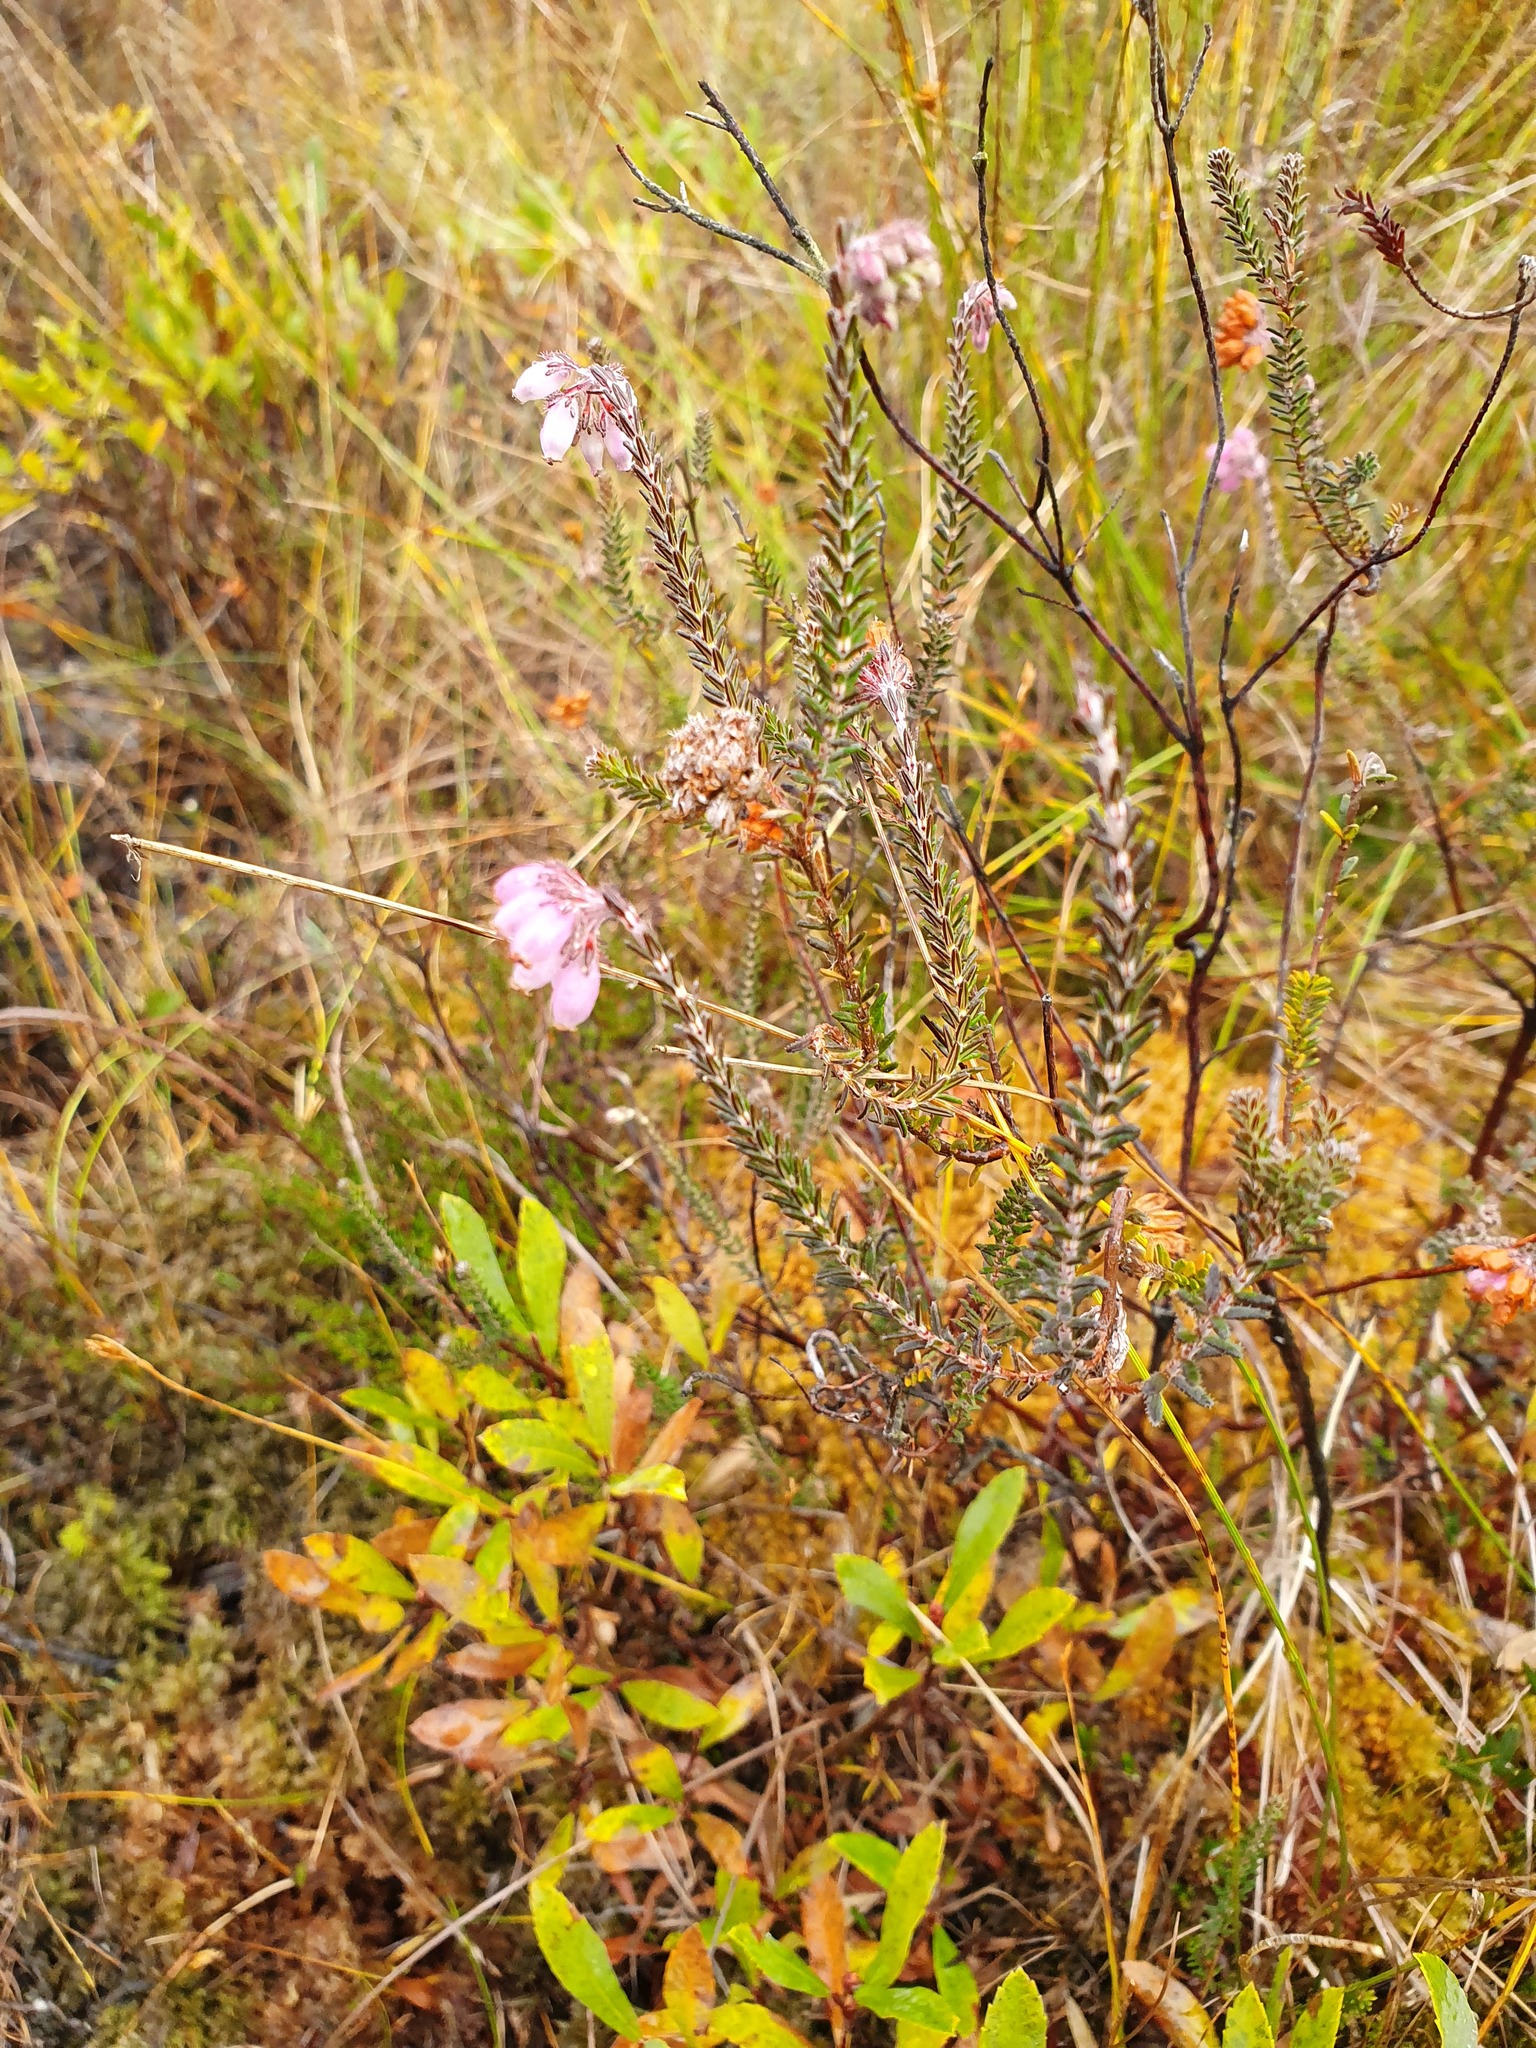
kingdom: Plantae
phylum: Tracheophyta
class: Magnoliopsida
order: Ericales
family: Ericaceae
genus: Erica
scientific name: Erica tetralix
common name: Cross-leaved heath
